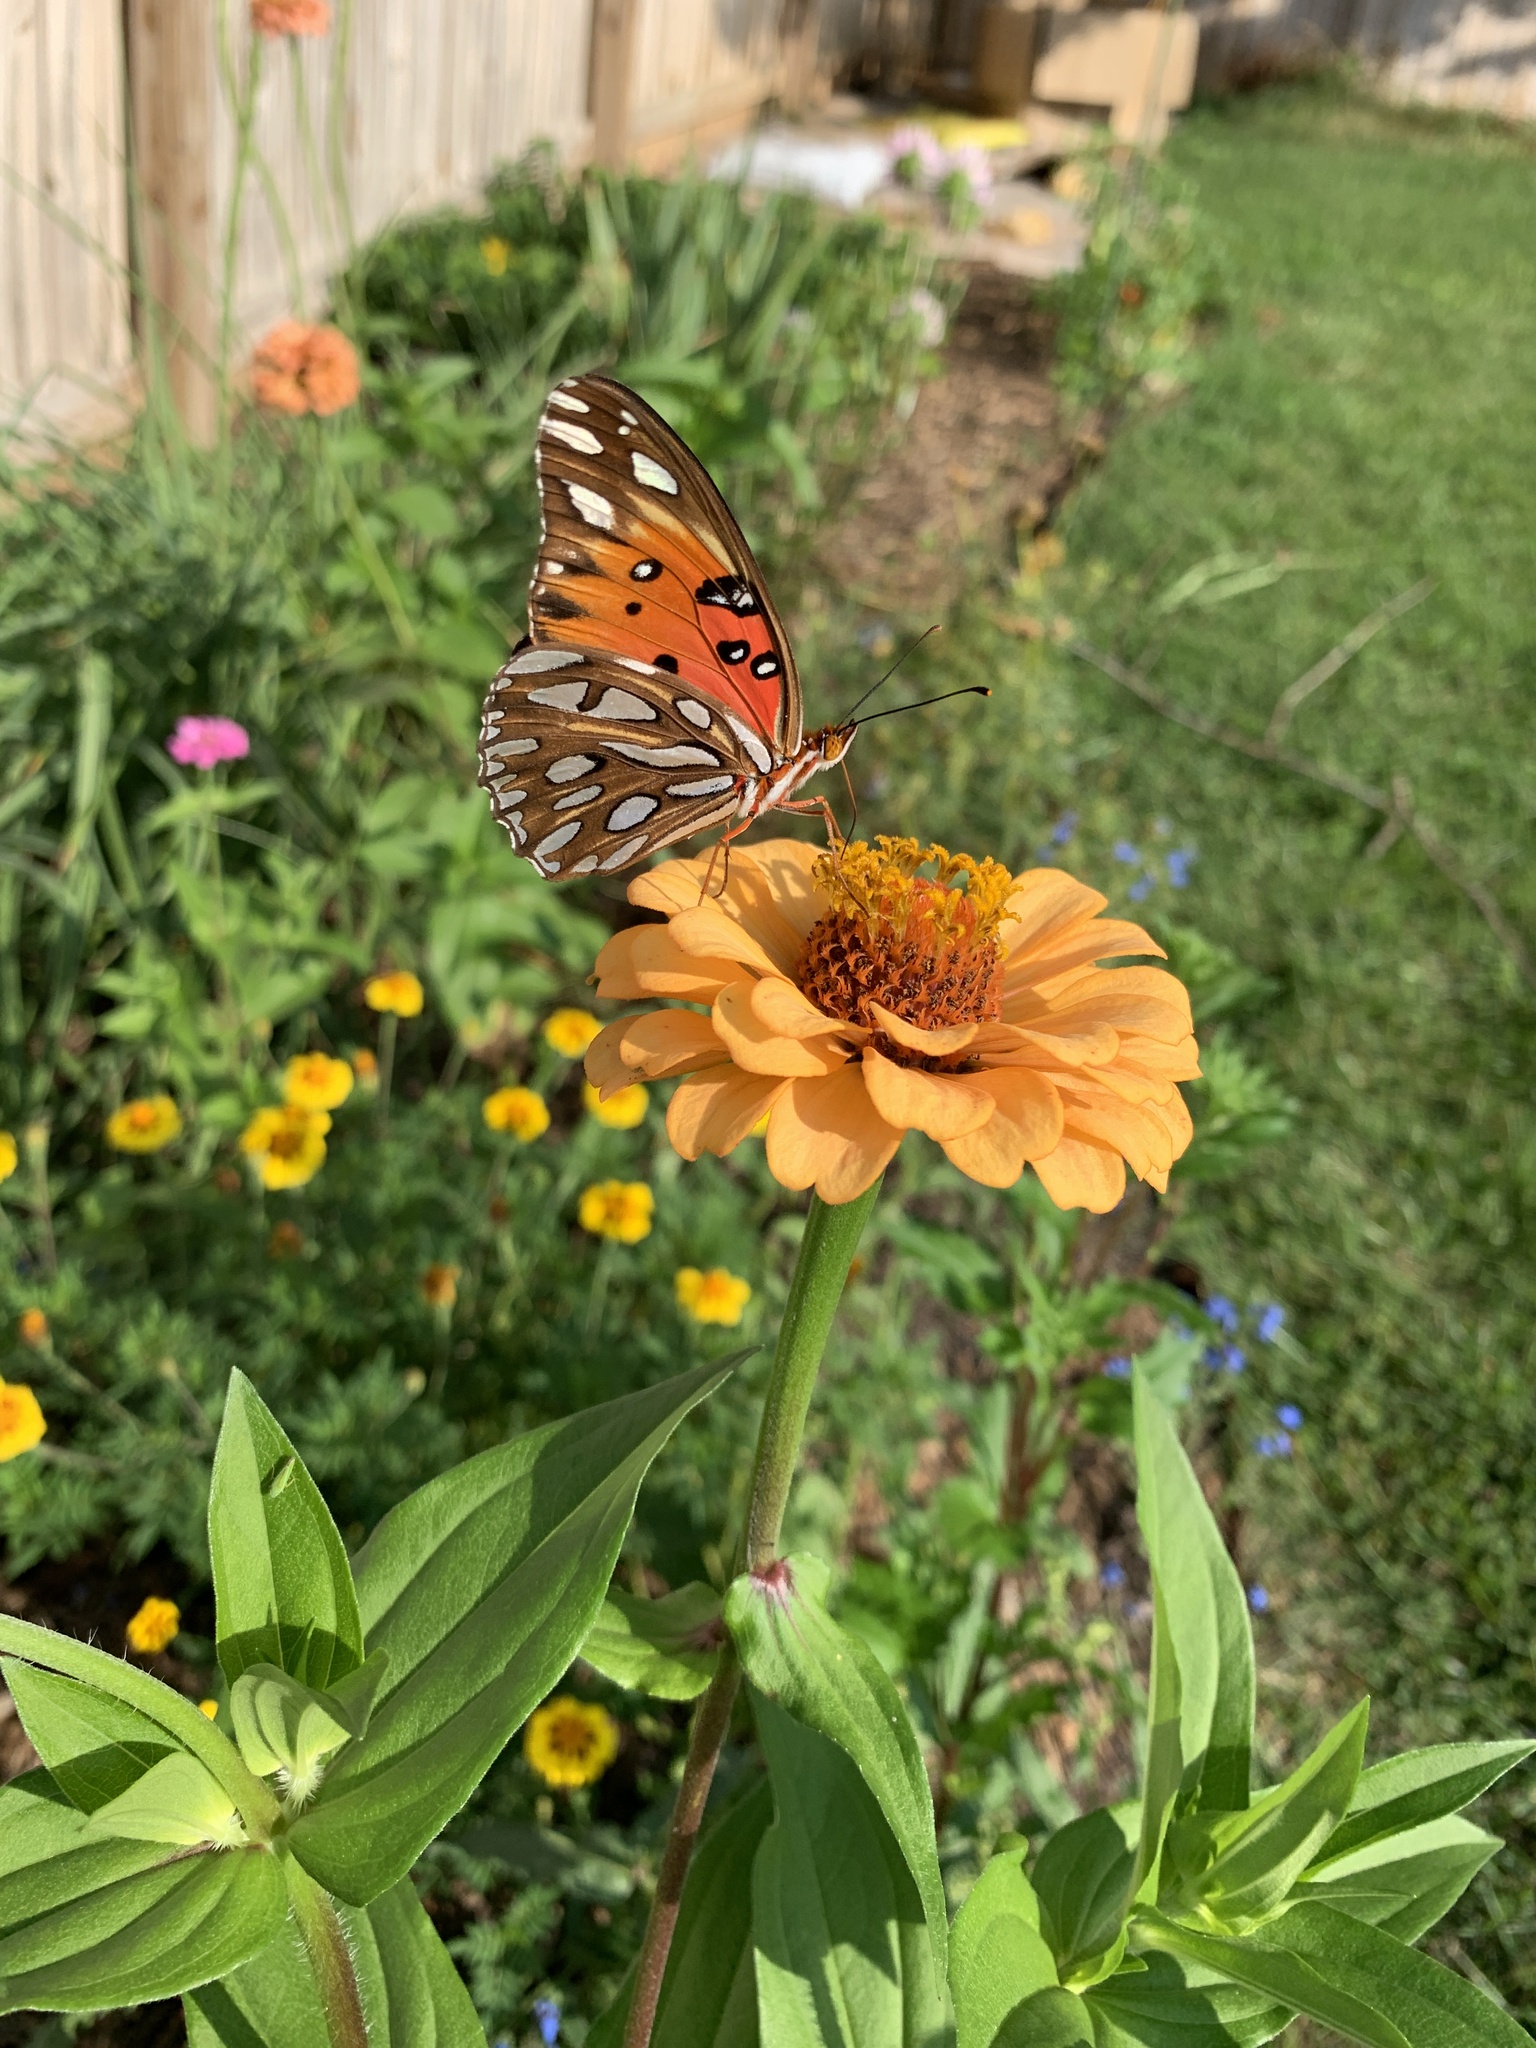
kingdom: Animalia
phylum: Arthropoda
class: Insecta
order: Lepidoptera
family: Nymphalidae
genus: Dione
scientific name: Dione vanillae
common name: Gulf fritillary
